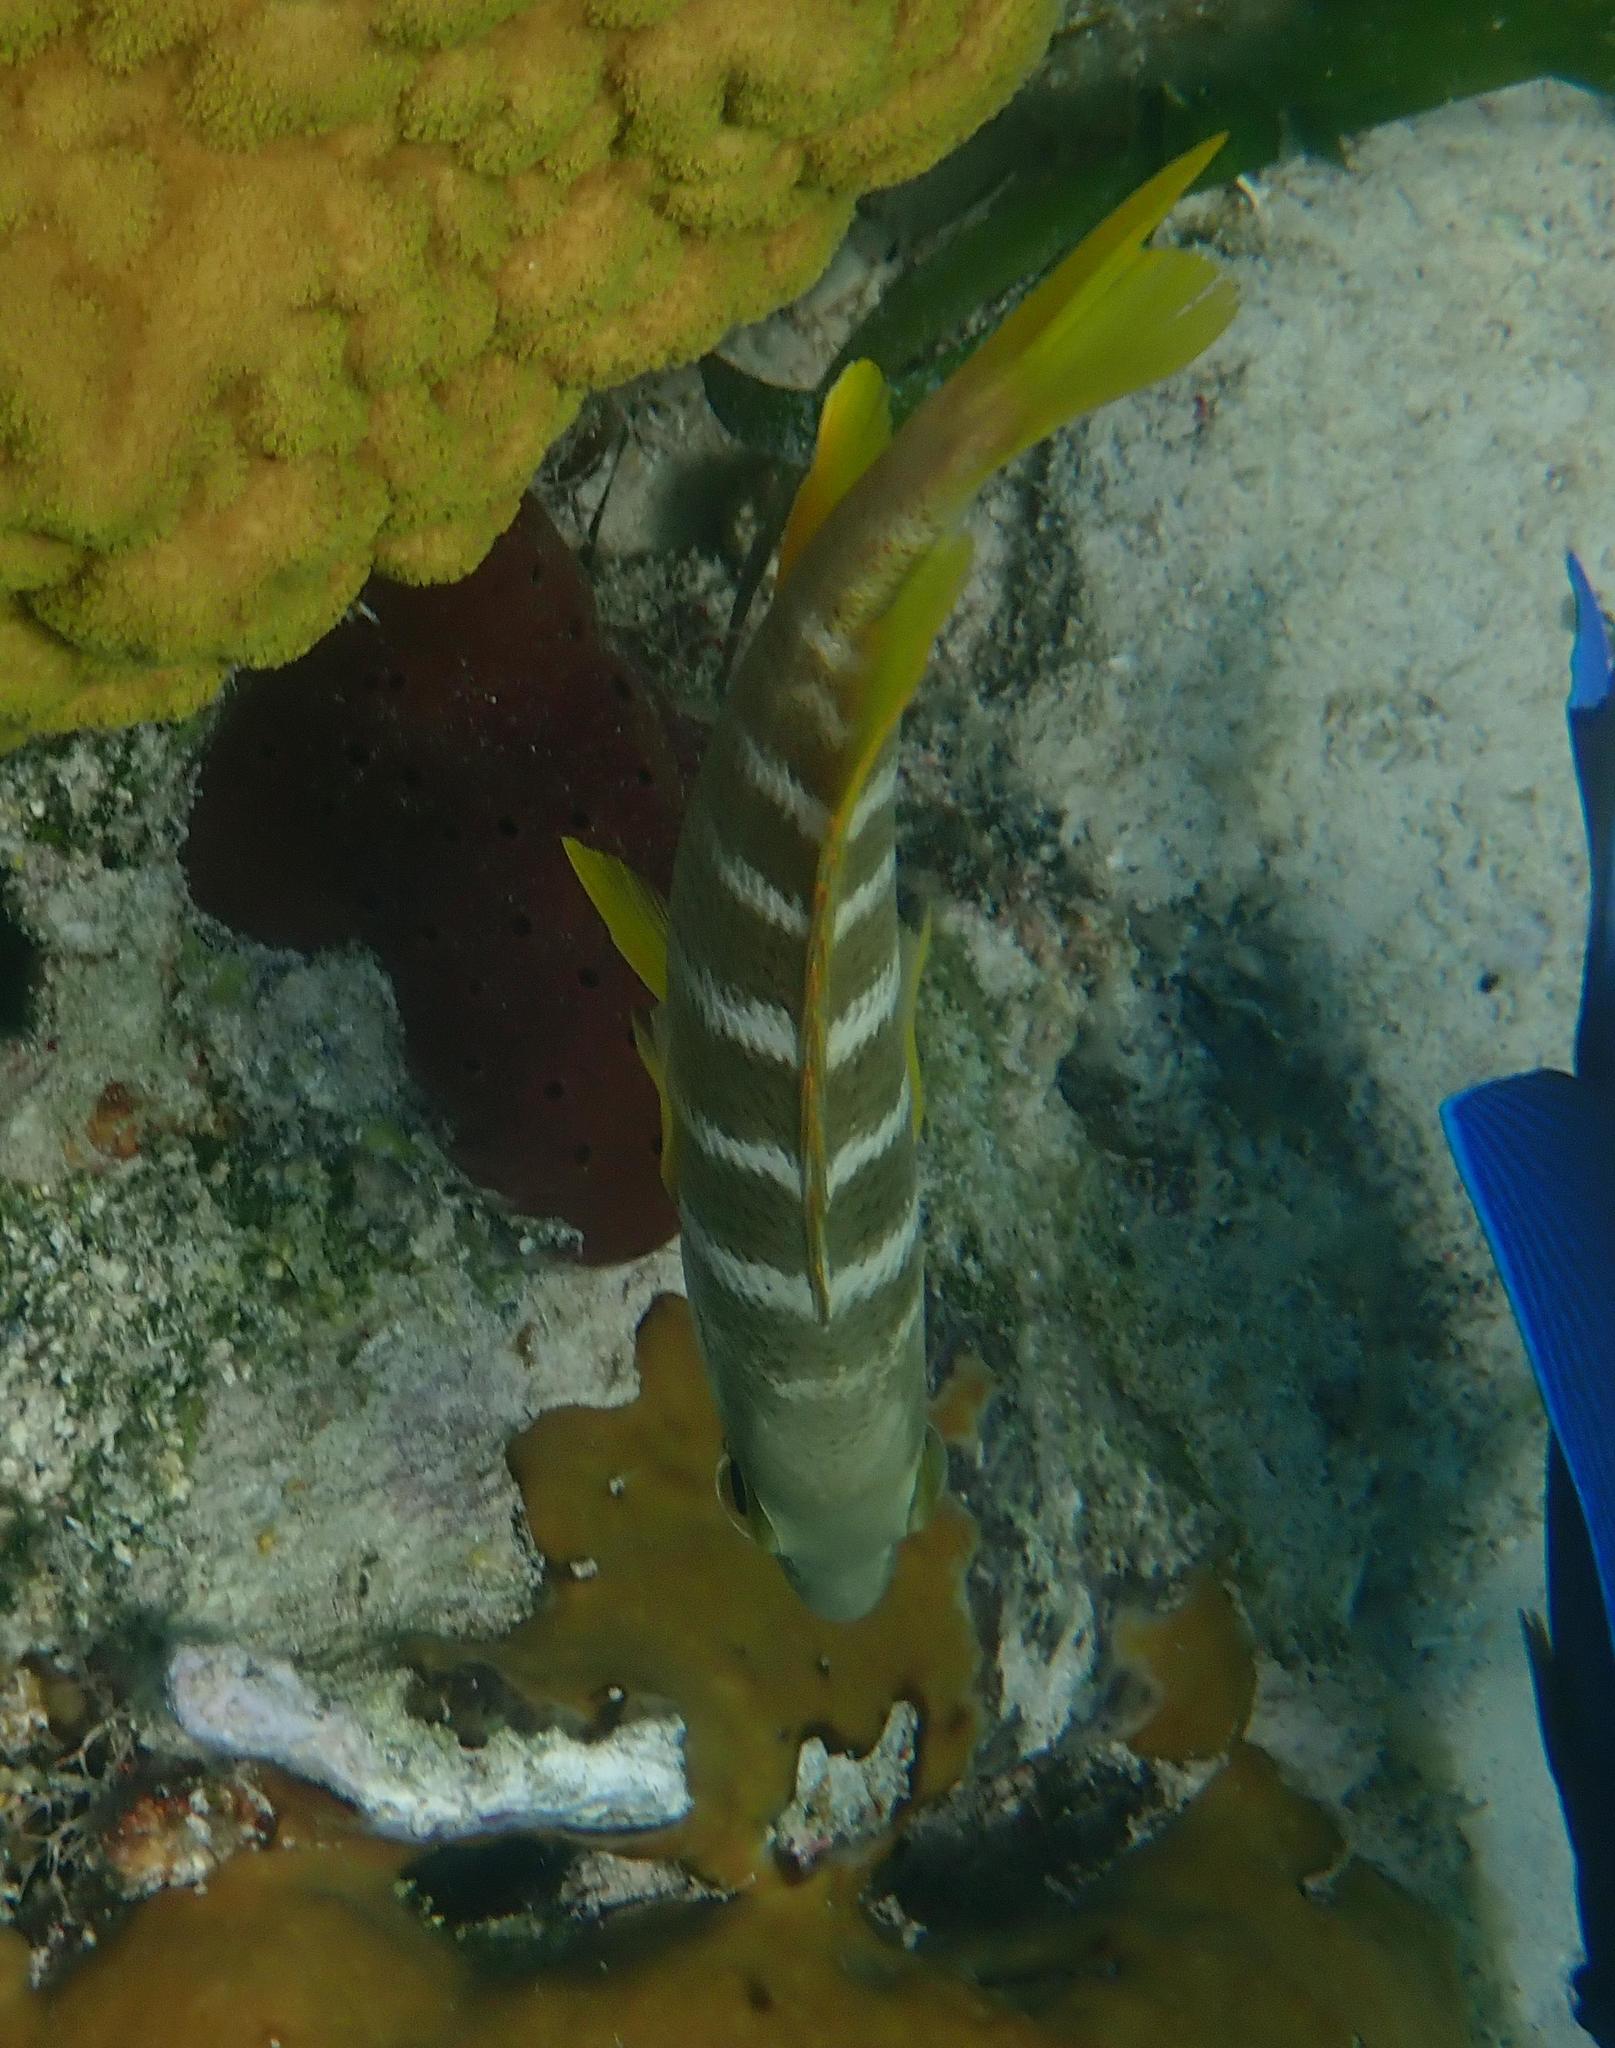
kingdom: Animalia
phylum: Chordata
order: Perciformes
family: Lutjanidae
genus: Lutjanus
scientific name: Lutjanus apodus
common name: Schoolmaster
